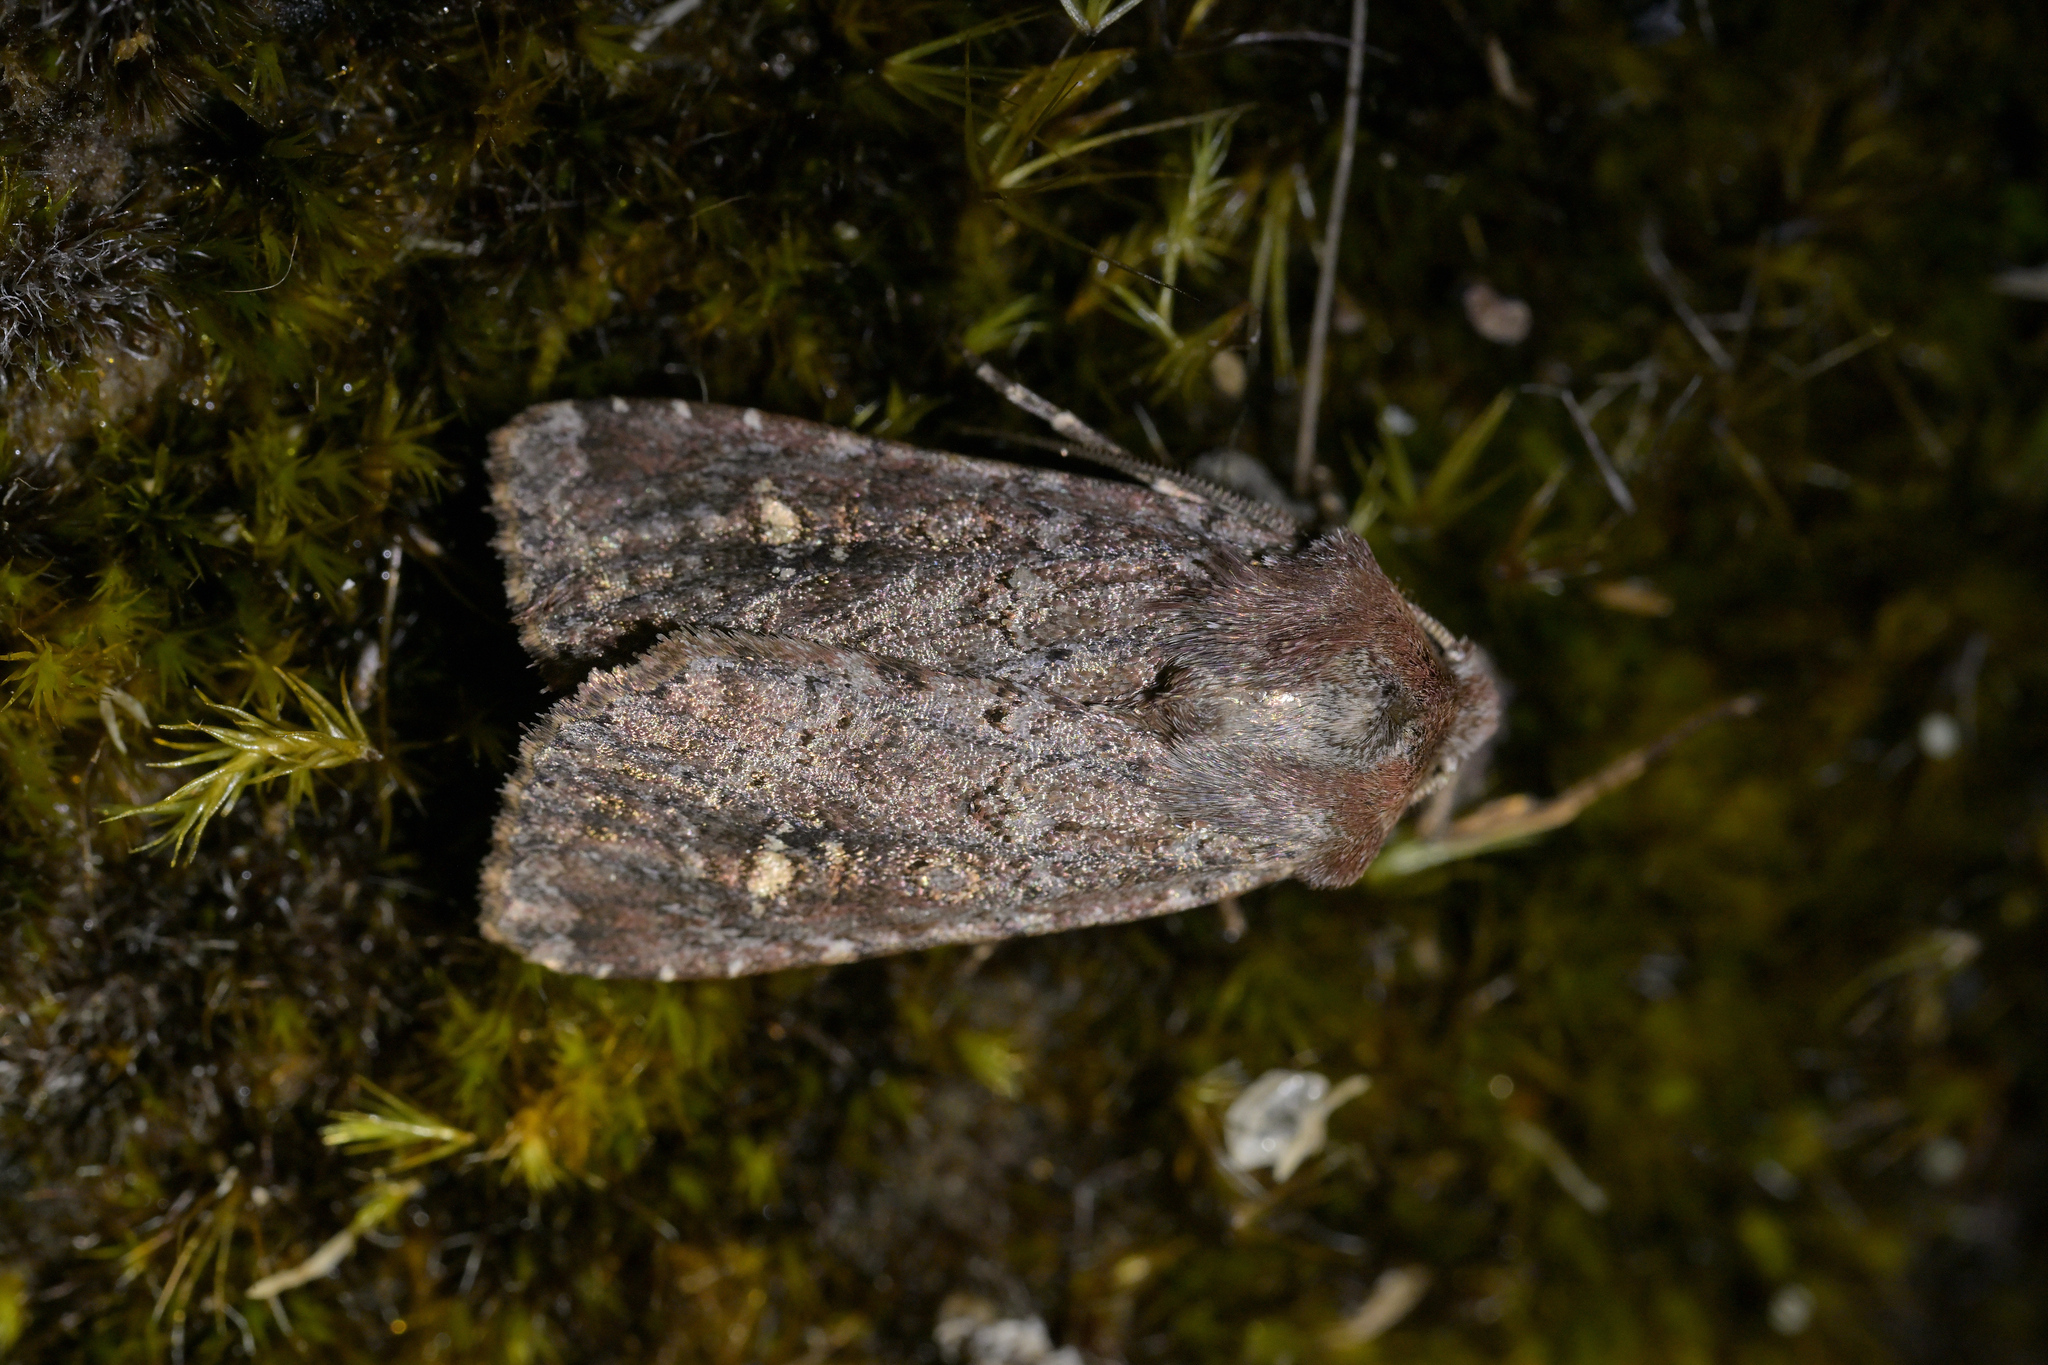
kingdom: Animalia
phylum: Arthropoda
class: Insecta
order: Lepidoptera
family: Noctuidae
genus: Ichneutica
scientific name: Ichneutica
